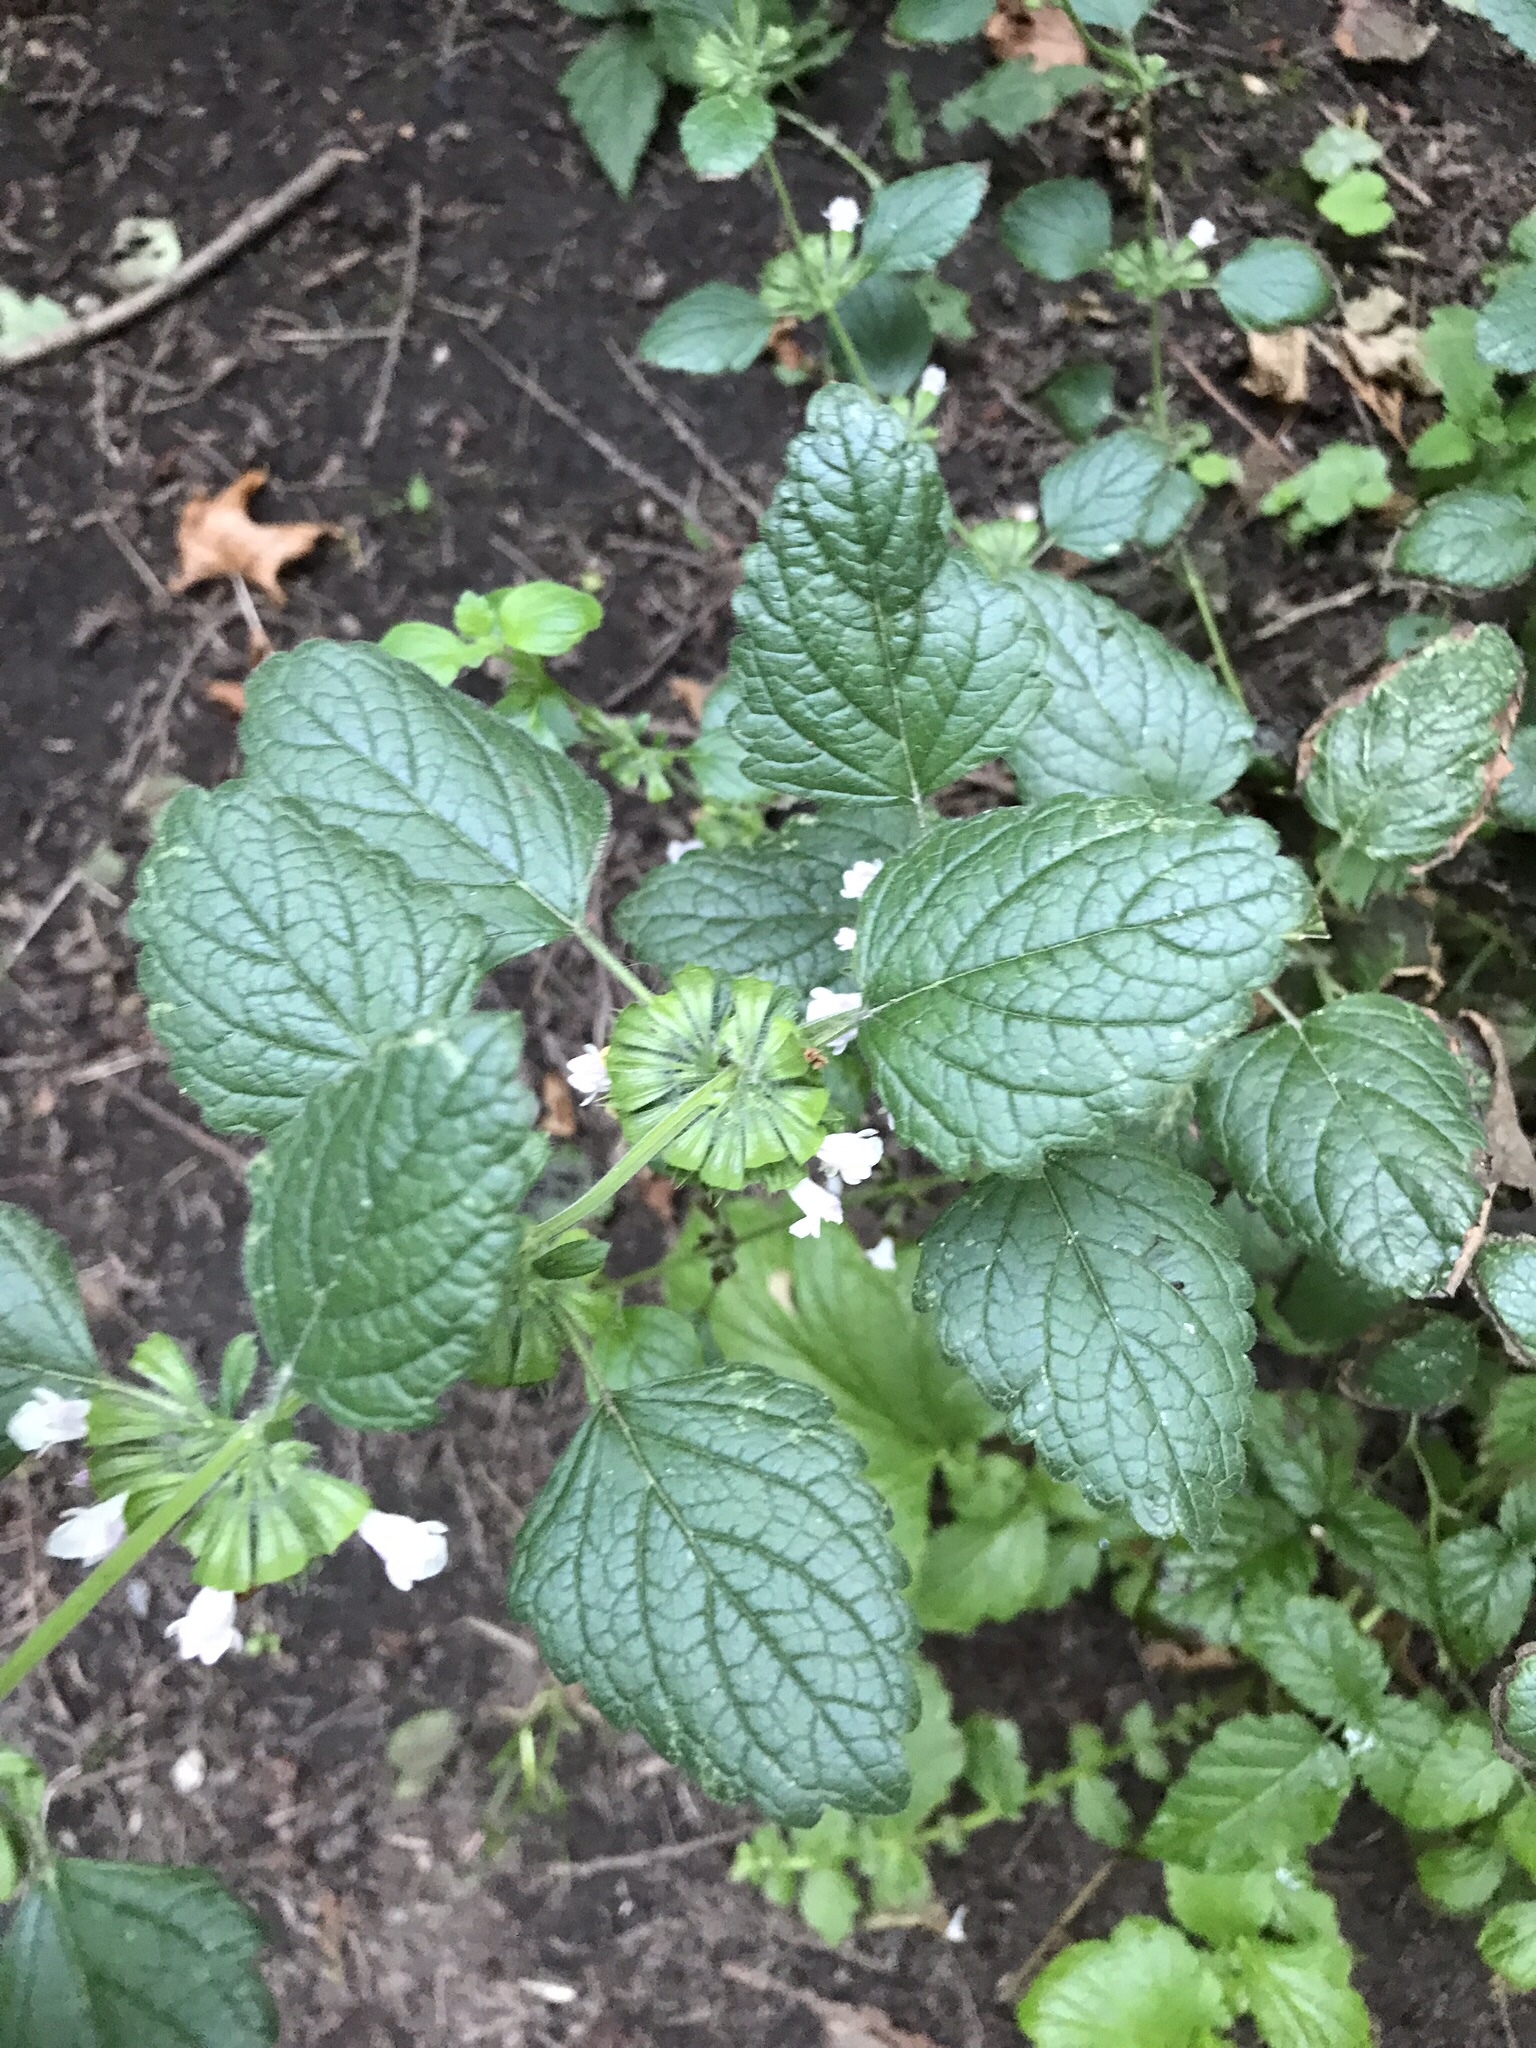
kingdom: Plantae
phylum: Tracheophyta
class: Magnoliopsida
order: Lamiales
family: Lamiaceae
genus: Melissa
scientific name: Melissa officinalis
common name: Balm
